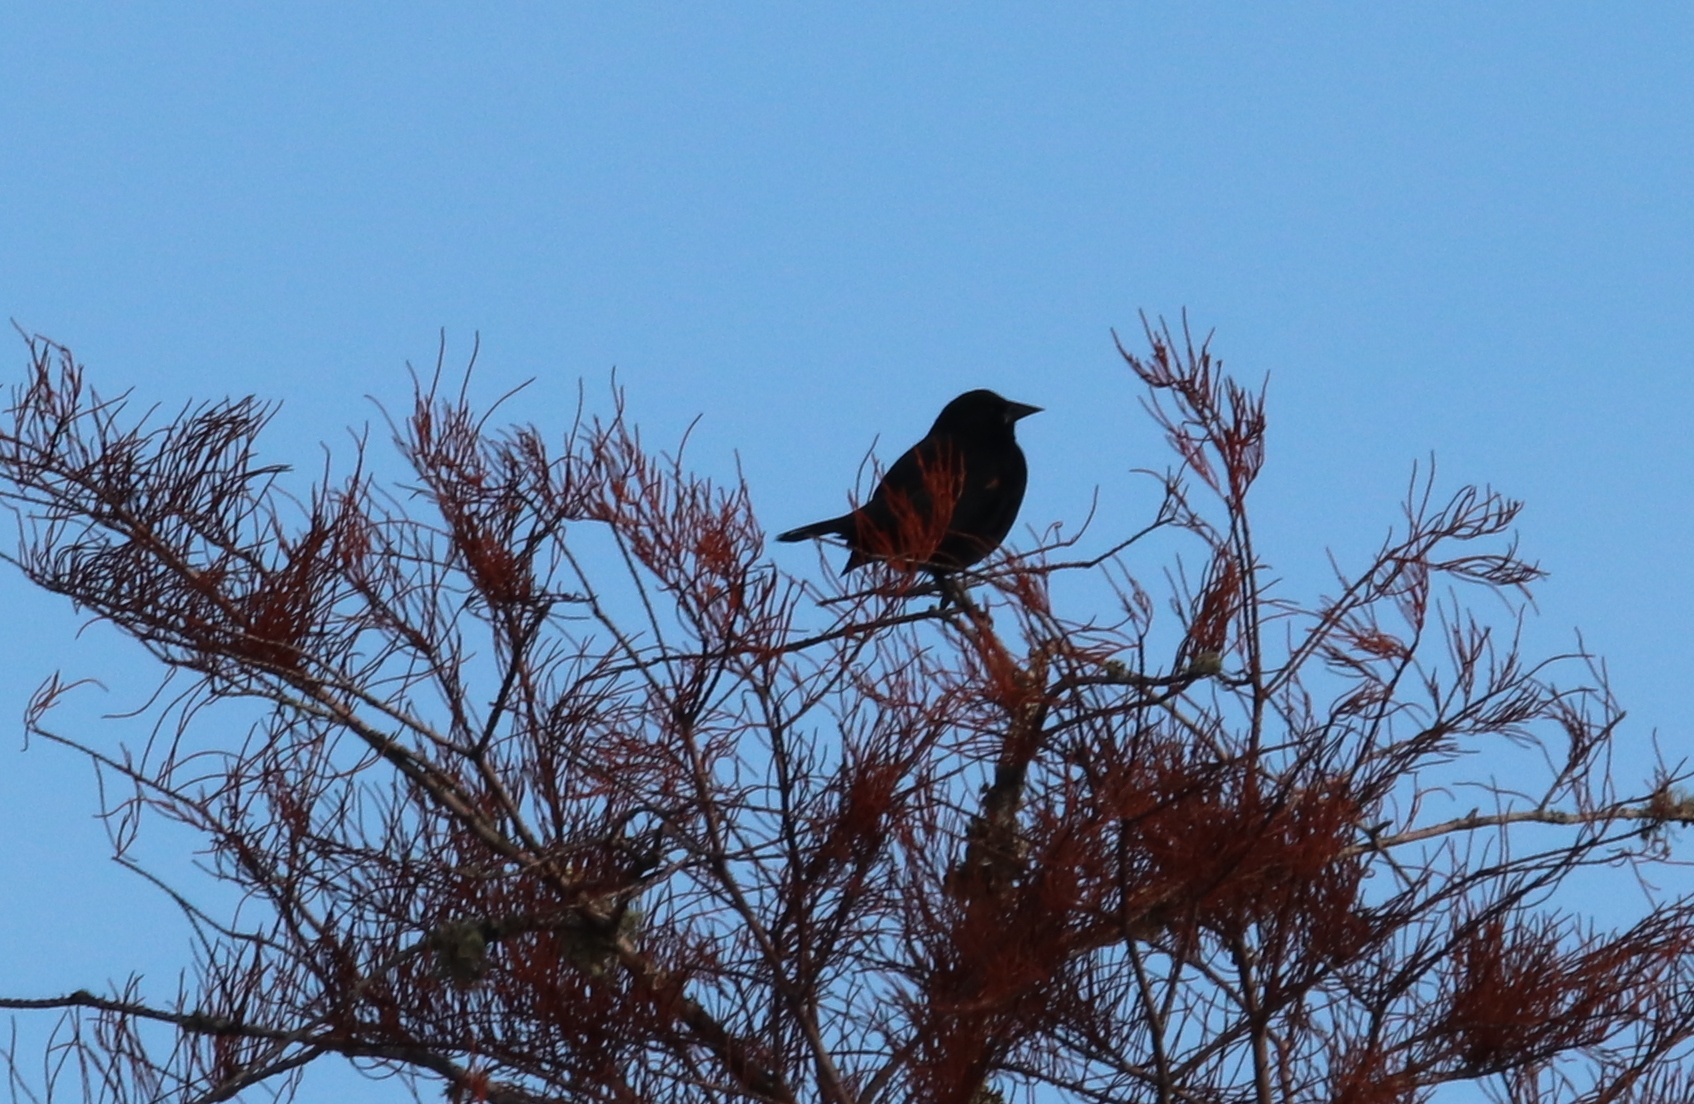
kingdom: Animalia
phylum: Chordata
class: Aves
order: Passeriformes
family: Icteridae
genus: Agelaius
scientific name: Agelaius phoeniceus
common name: Red-winged blackbird
